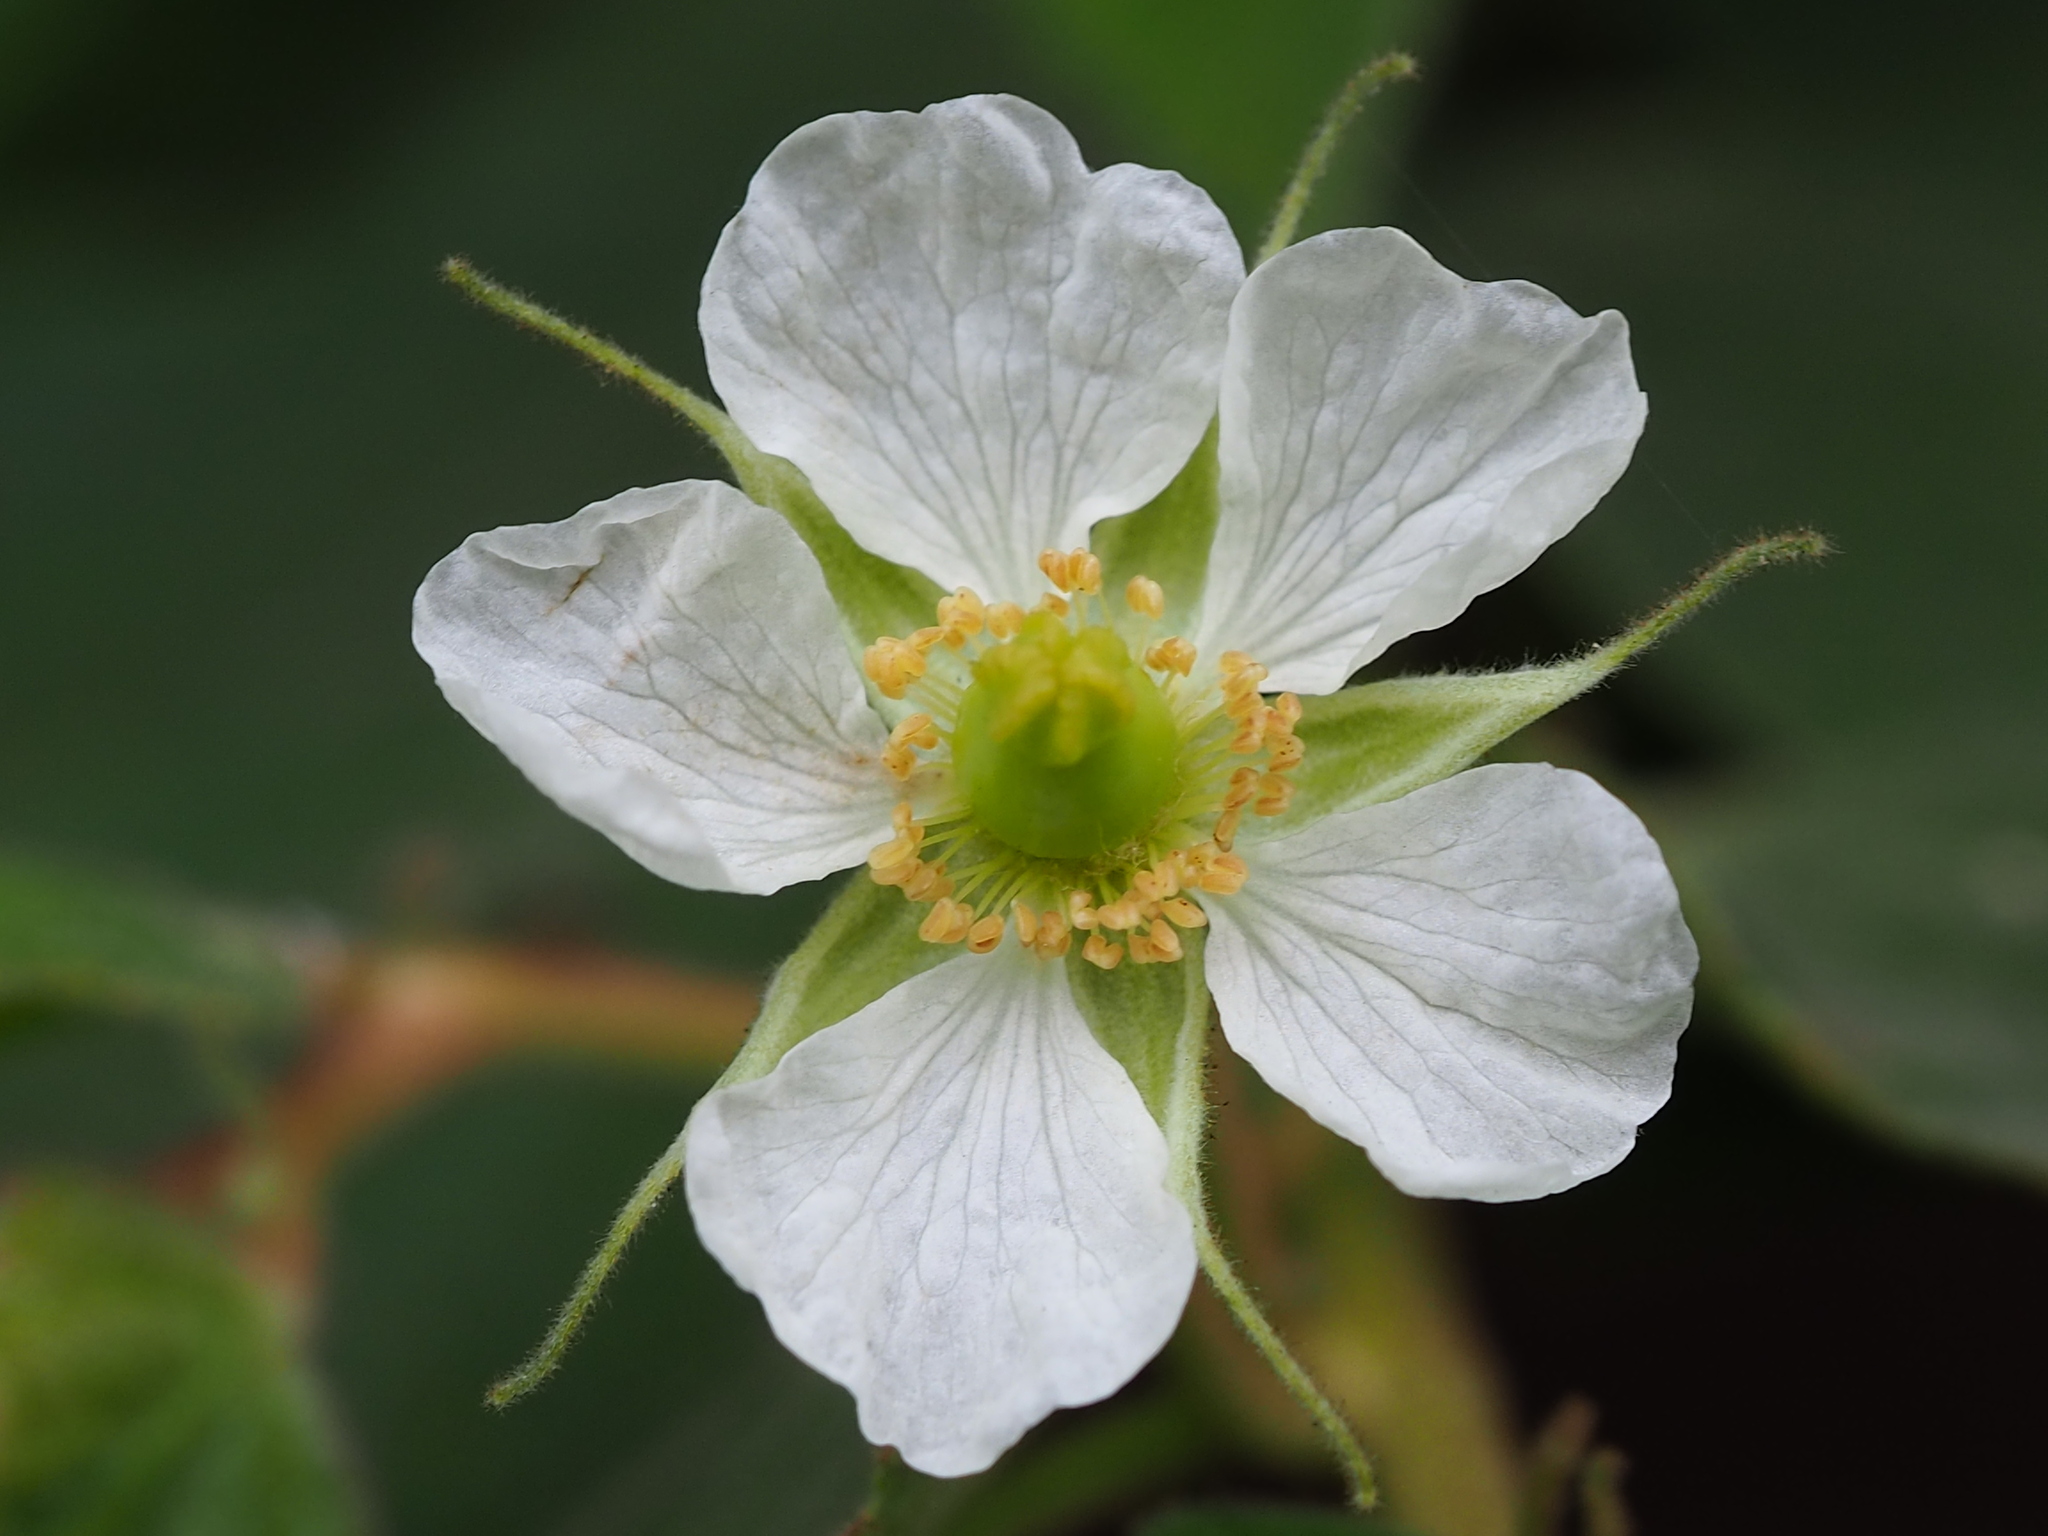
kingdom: Plantae
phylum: Tracheophyta
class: Magnoliopsida
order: Malvales
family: Muntingiaceae
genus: Muntingia
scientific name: Muntingia calabura
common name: Strawberrytree
